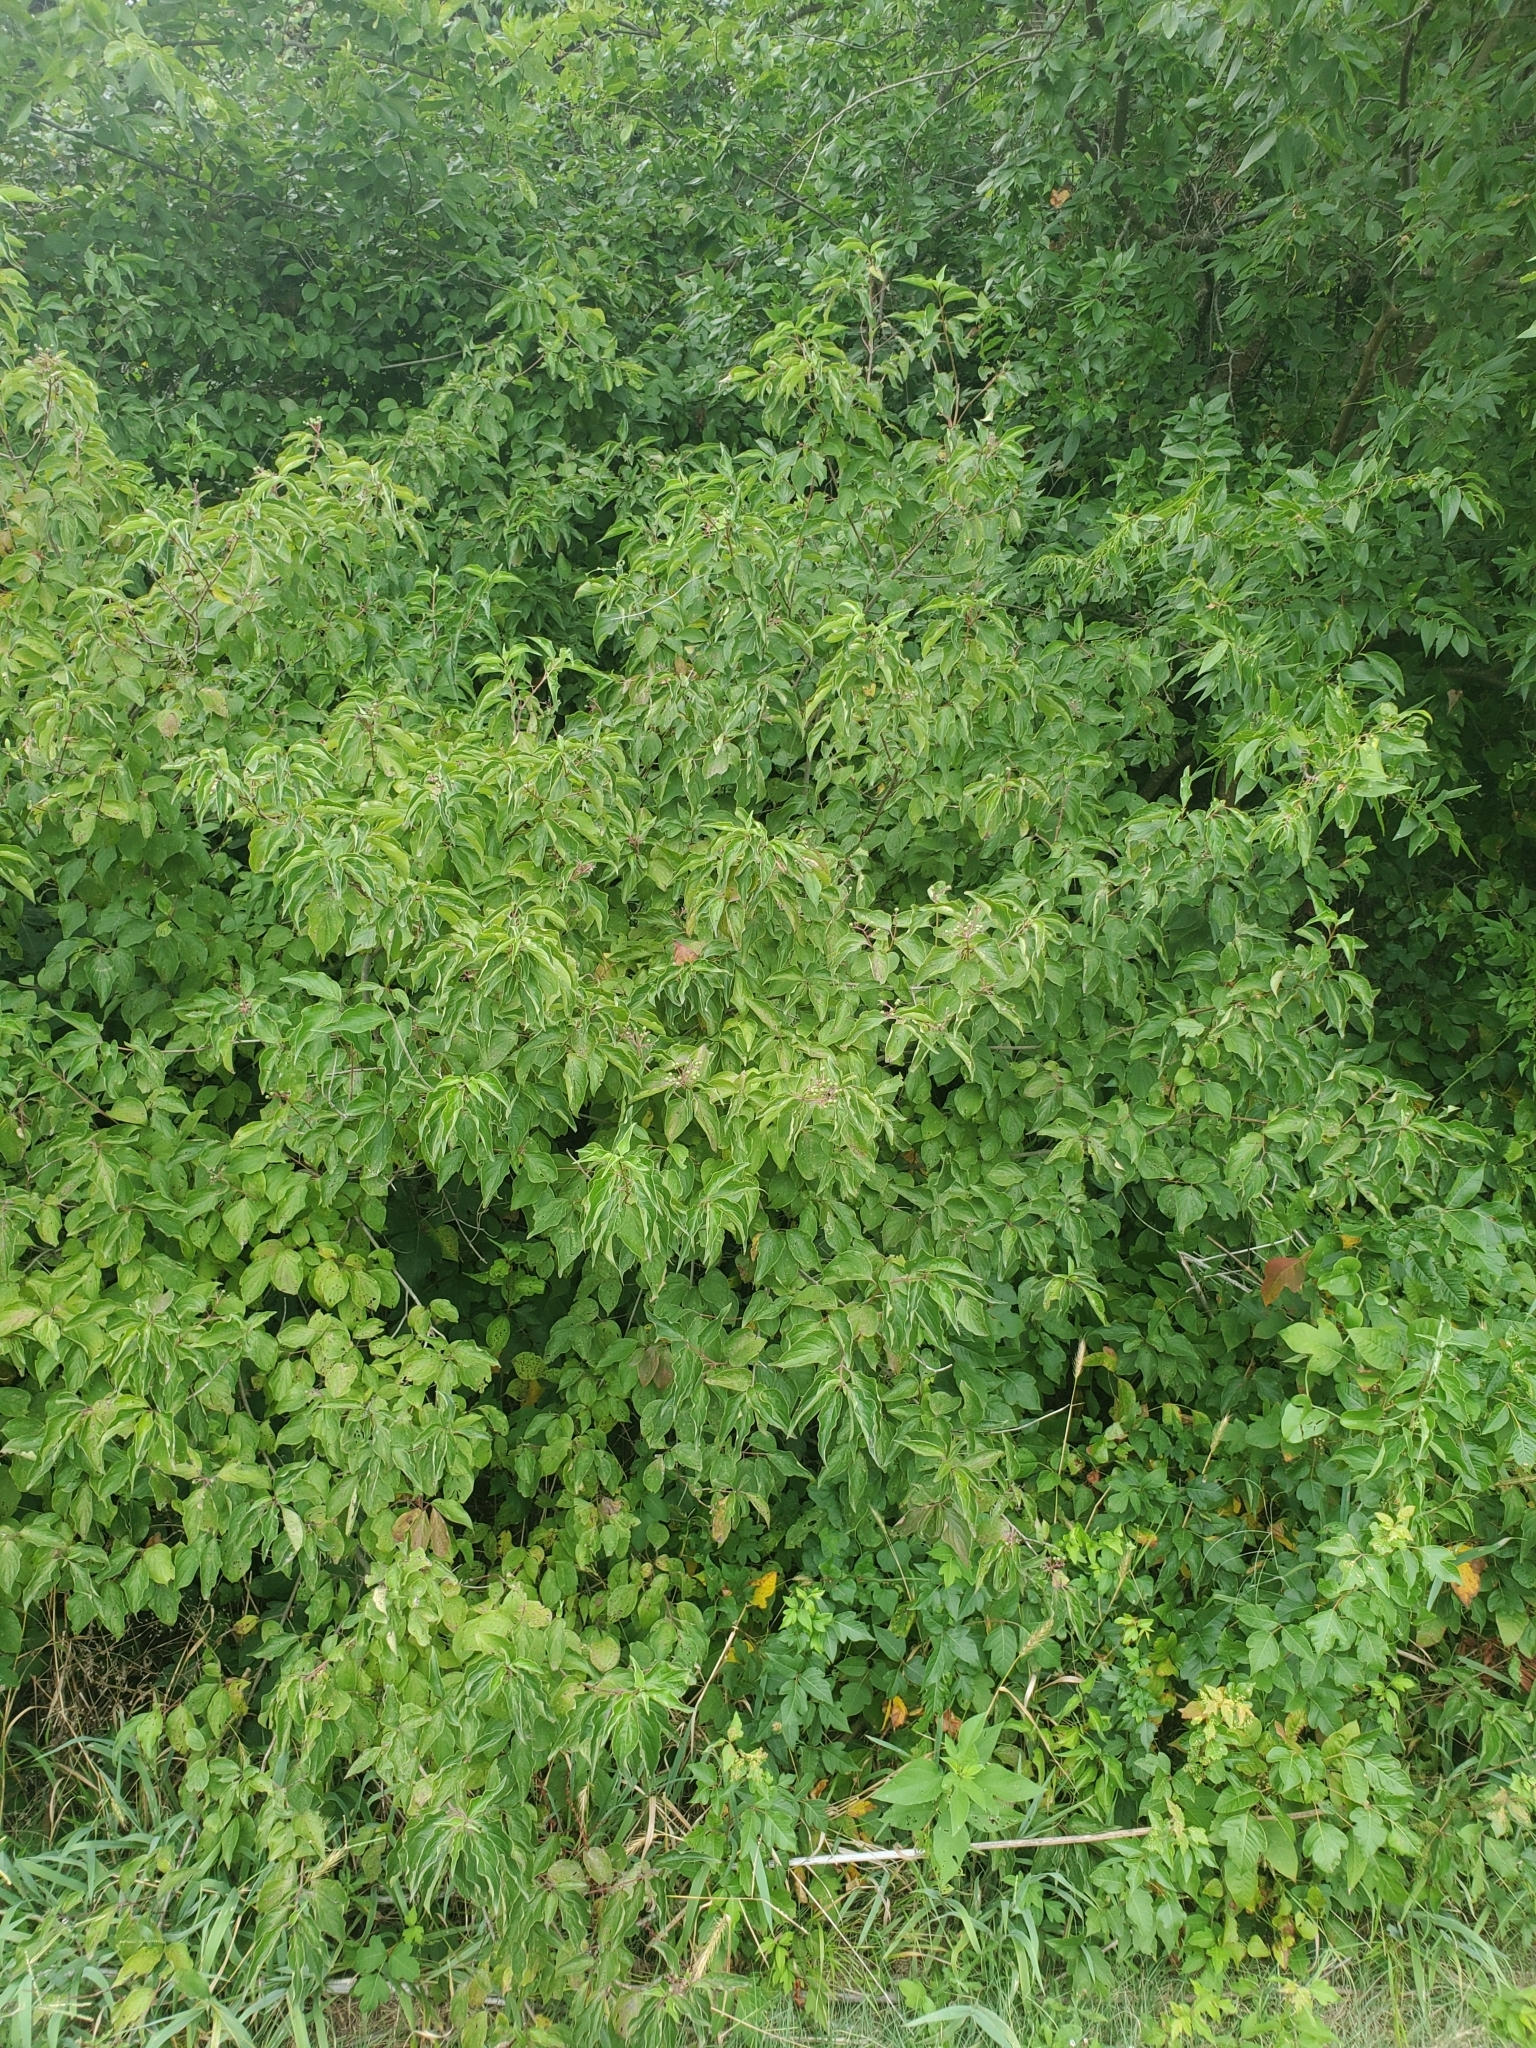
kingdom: Plantae
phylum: Tracheophyta
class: Magnoliopsida
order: Cornales
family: Cornaceae
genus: Cornus
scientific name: Cornus drummondii
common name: Rough-leaf dogwood
